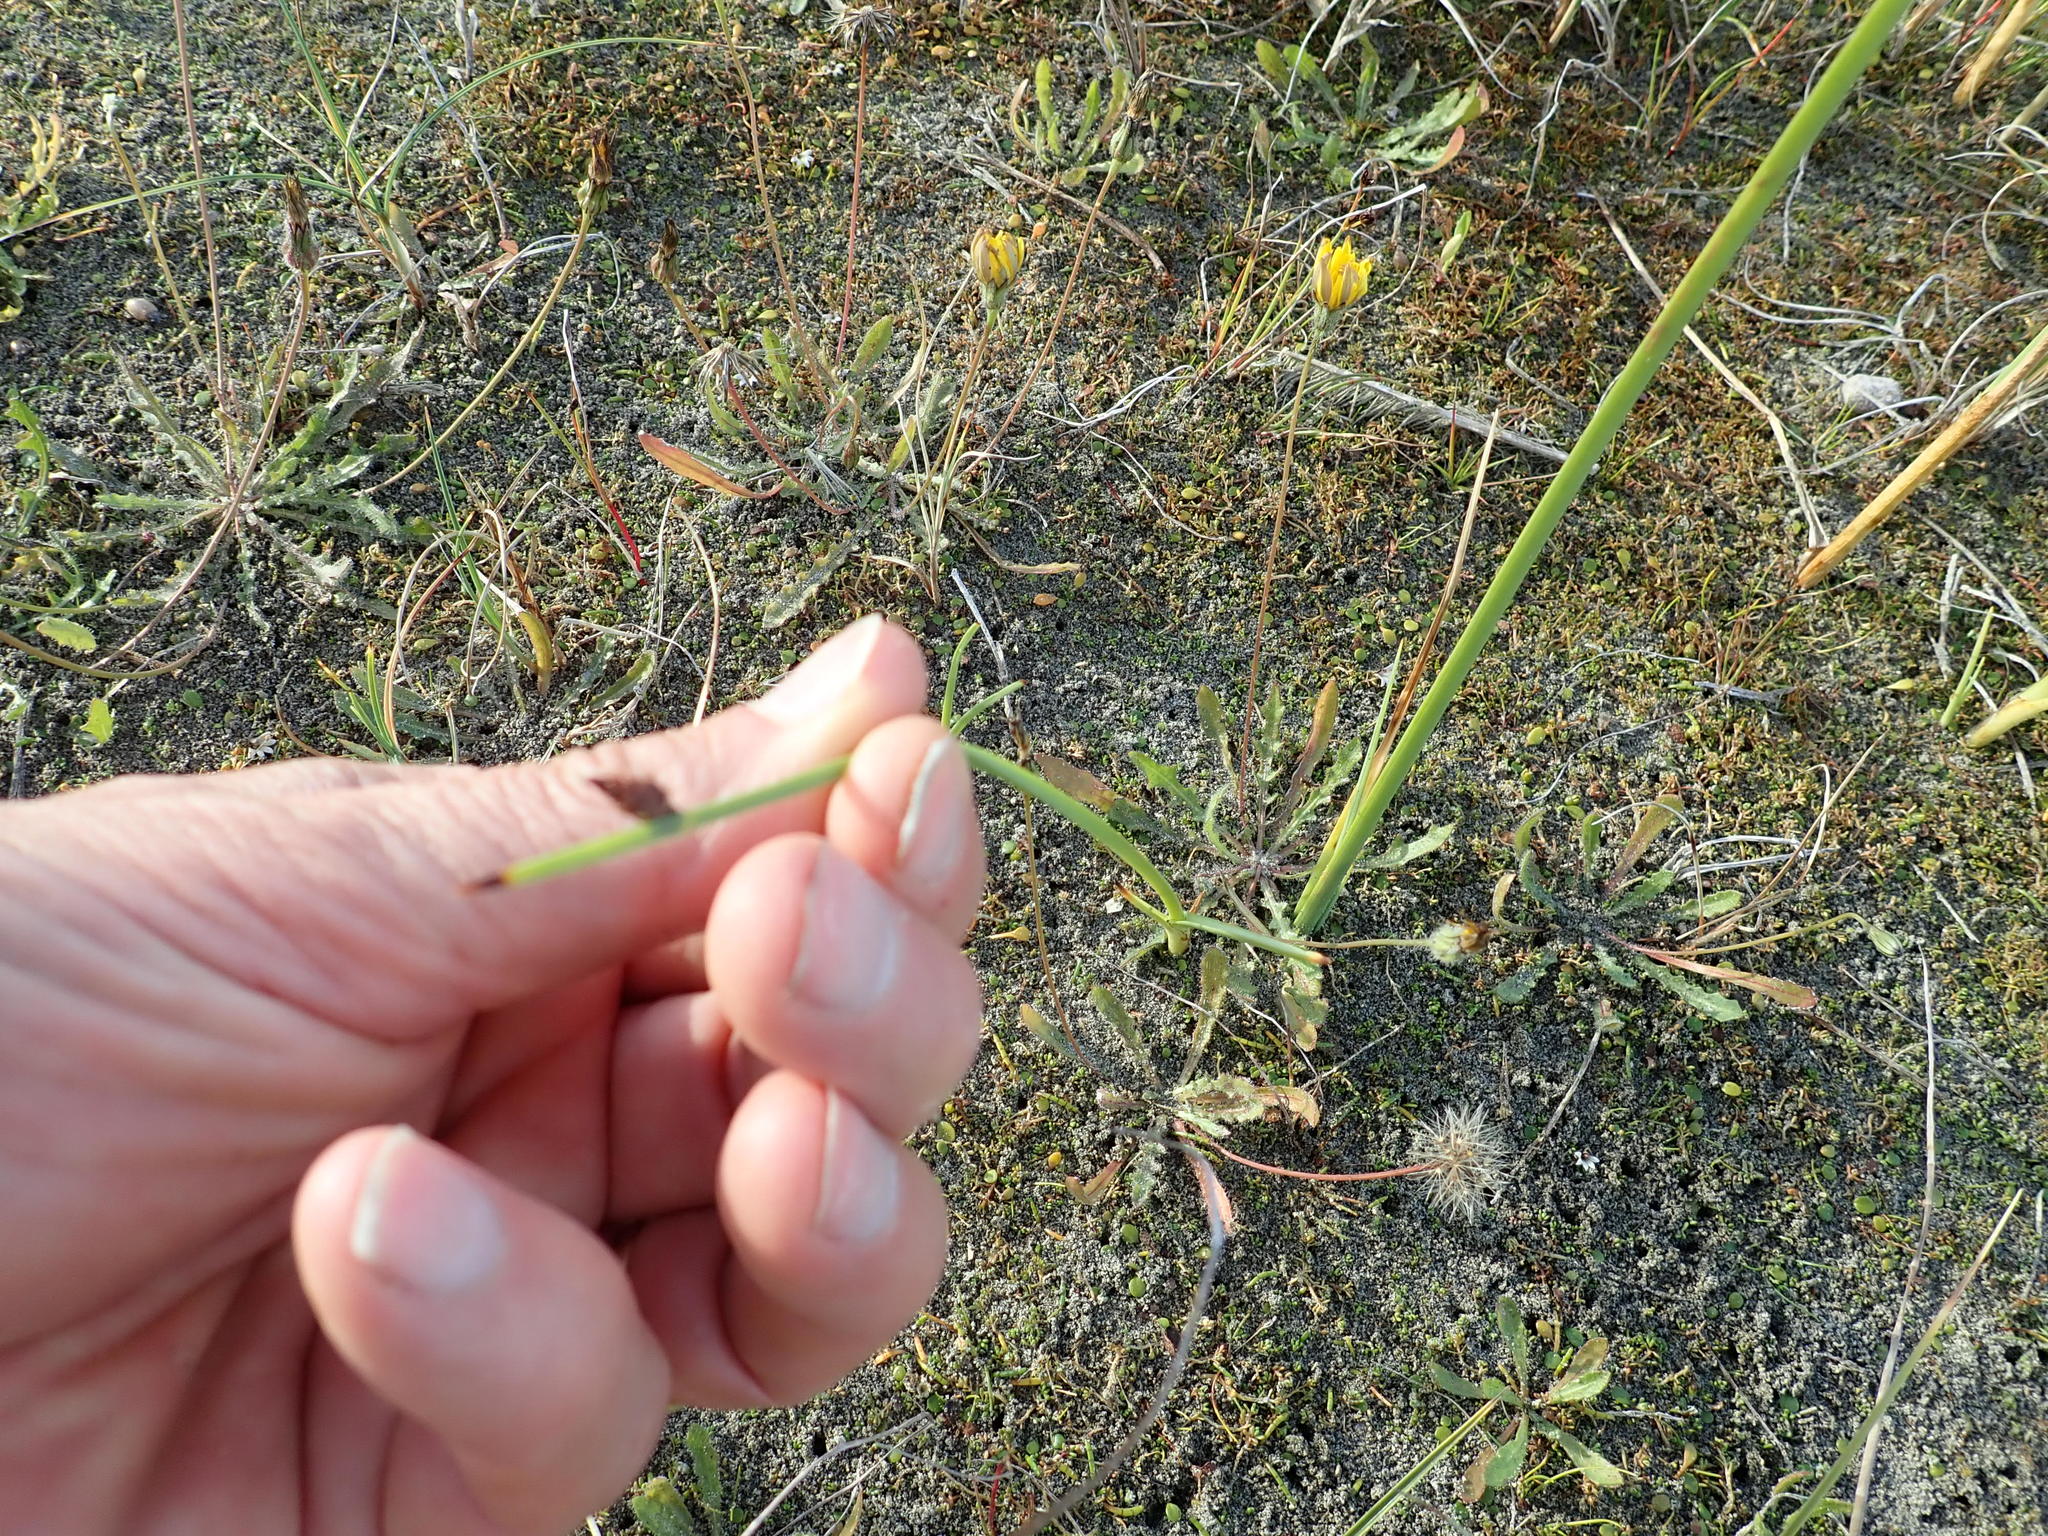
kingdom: Plantae
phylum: Tracheophyta
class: Liliopsida
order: Poales
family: Cyperaceae
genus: Schoenoplectus
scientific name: Schoenoplectus pungens
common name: Sharp club-rush
